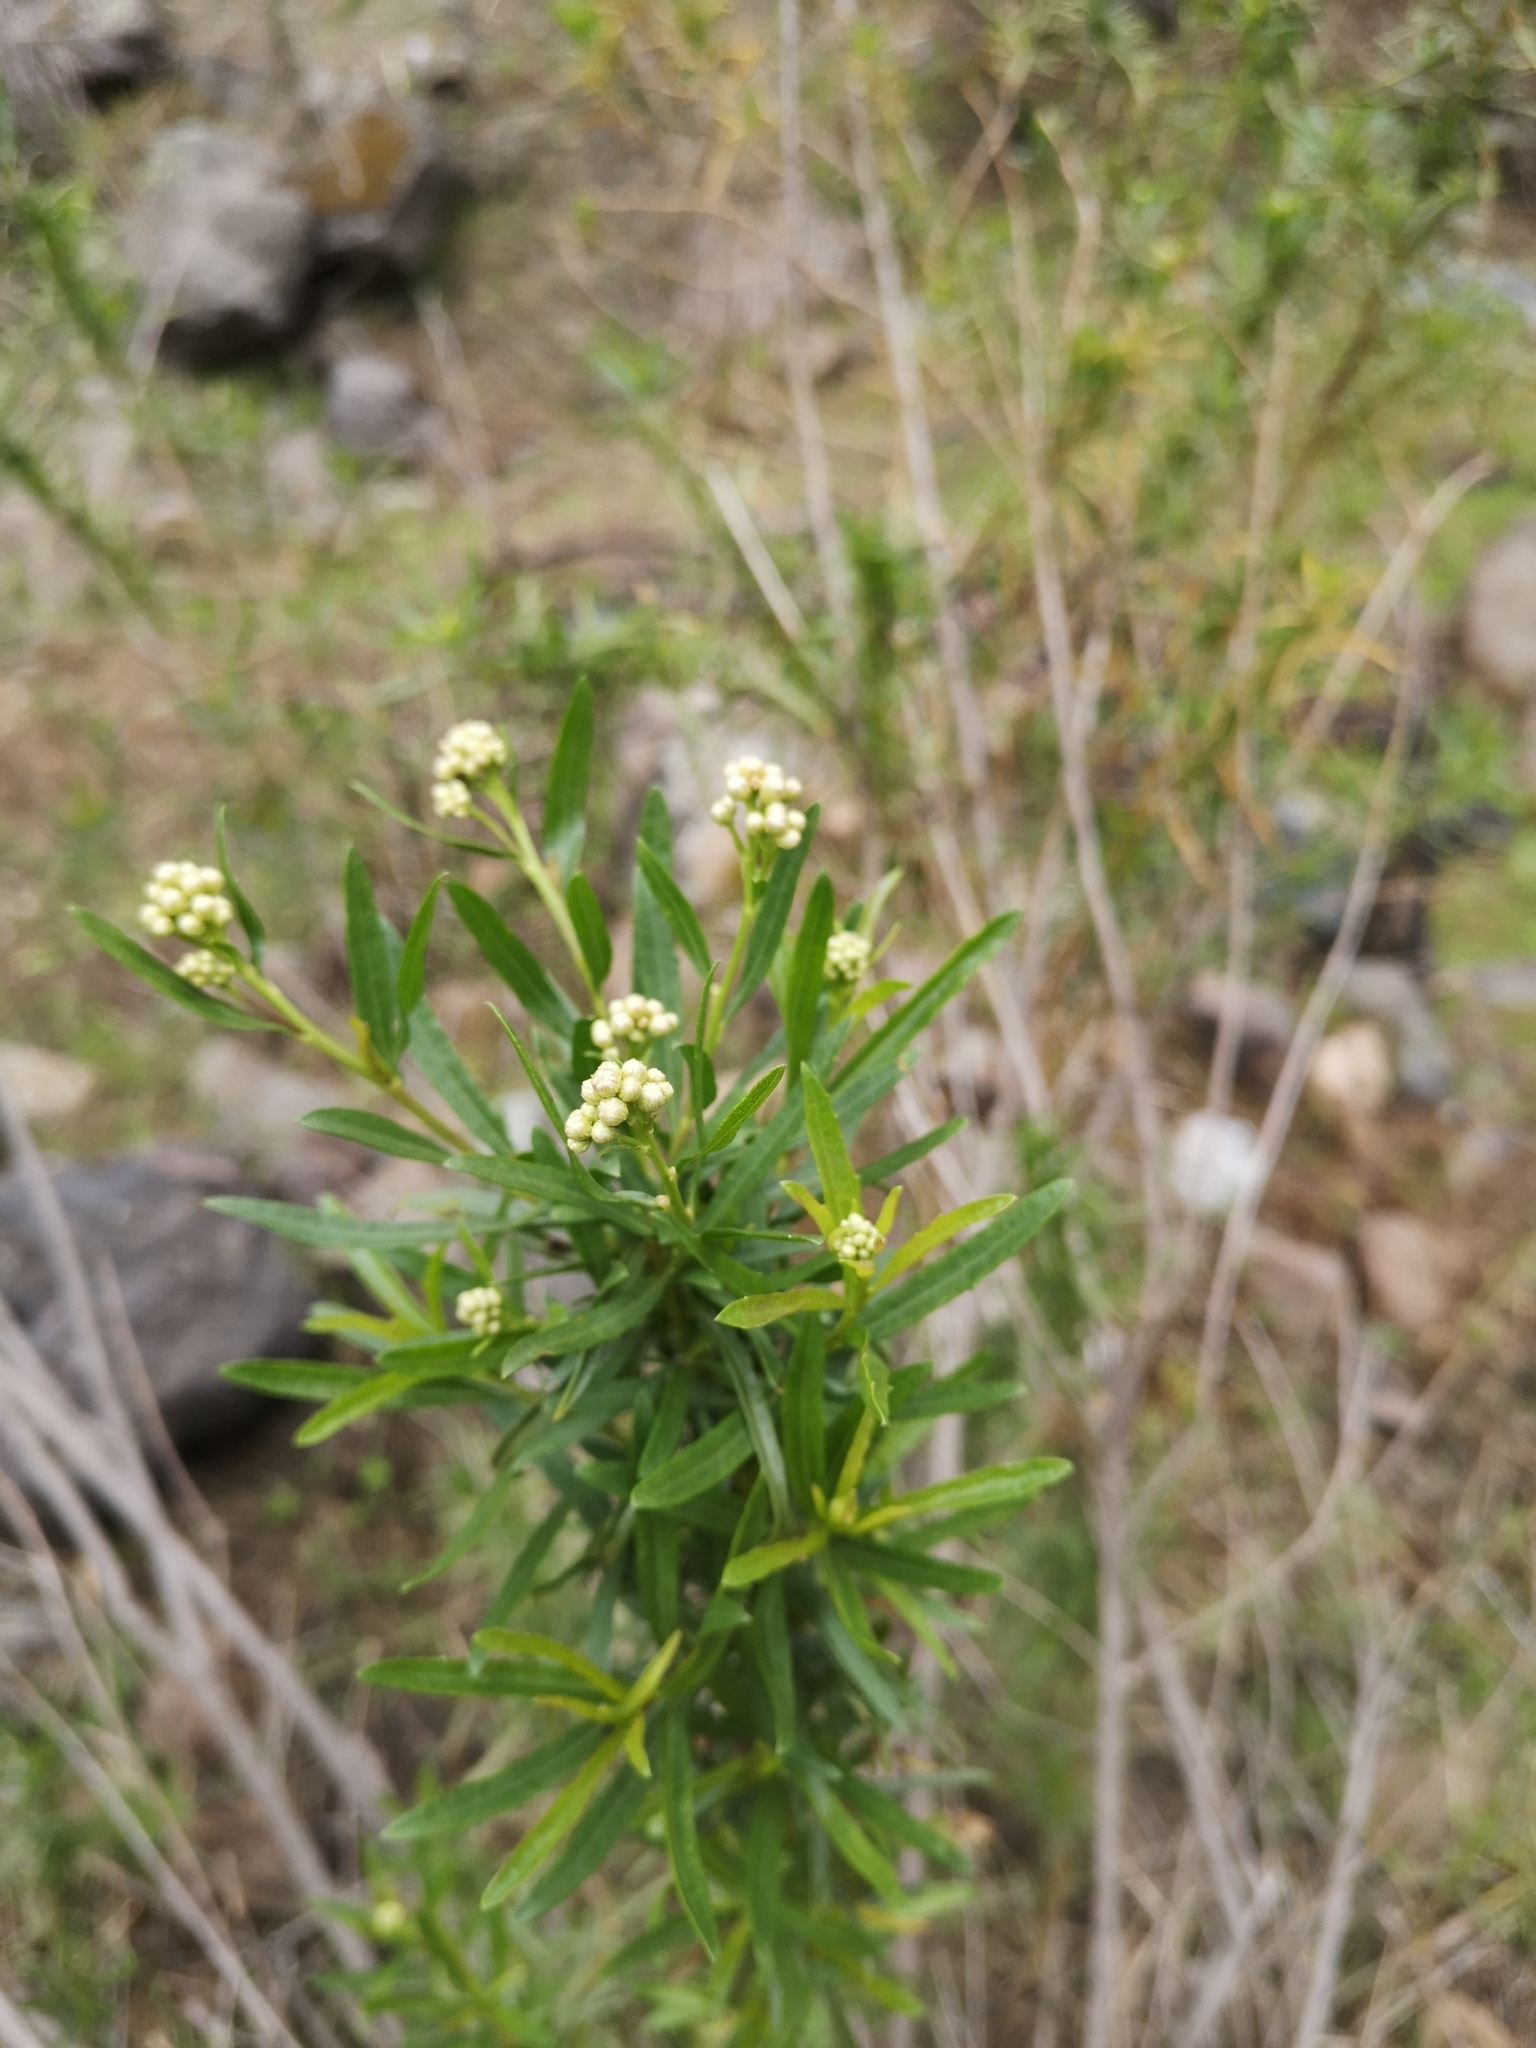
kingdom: Plantae
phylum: Tracheophyta
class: Magnoliopsida
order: Asterales
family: Asteraceae
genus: Baccharis
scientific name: Baccharis paniculata
